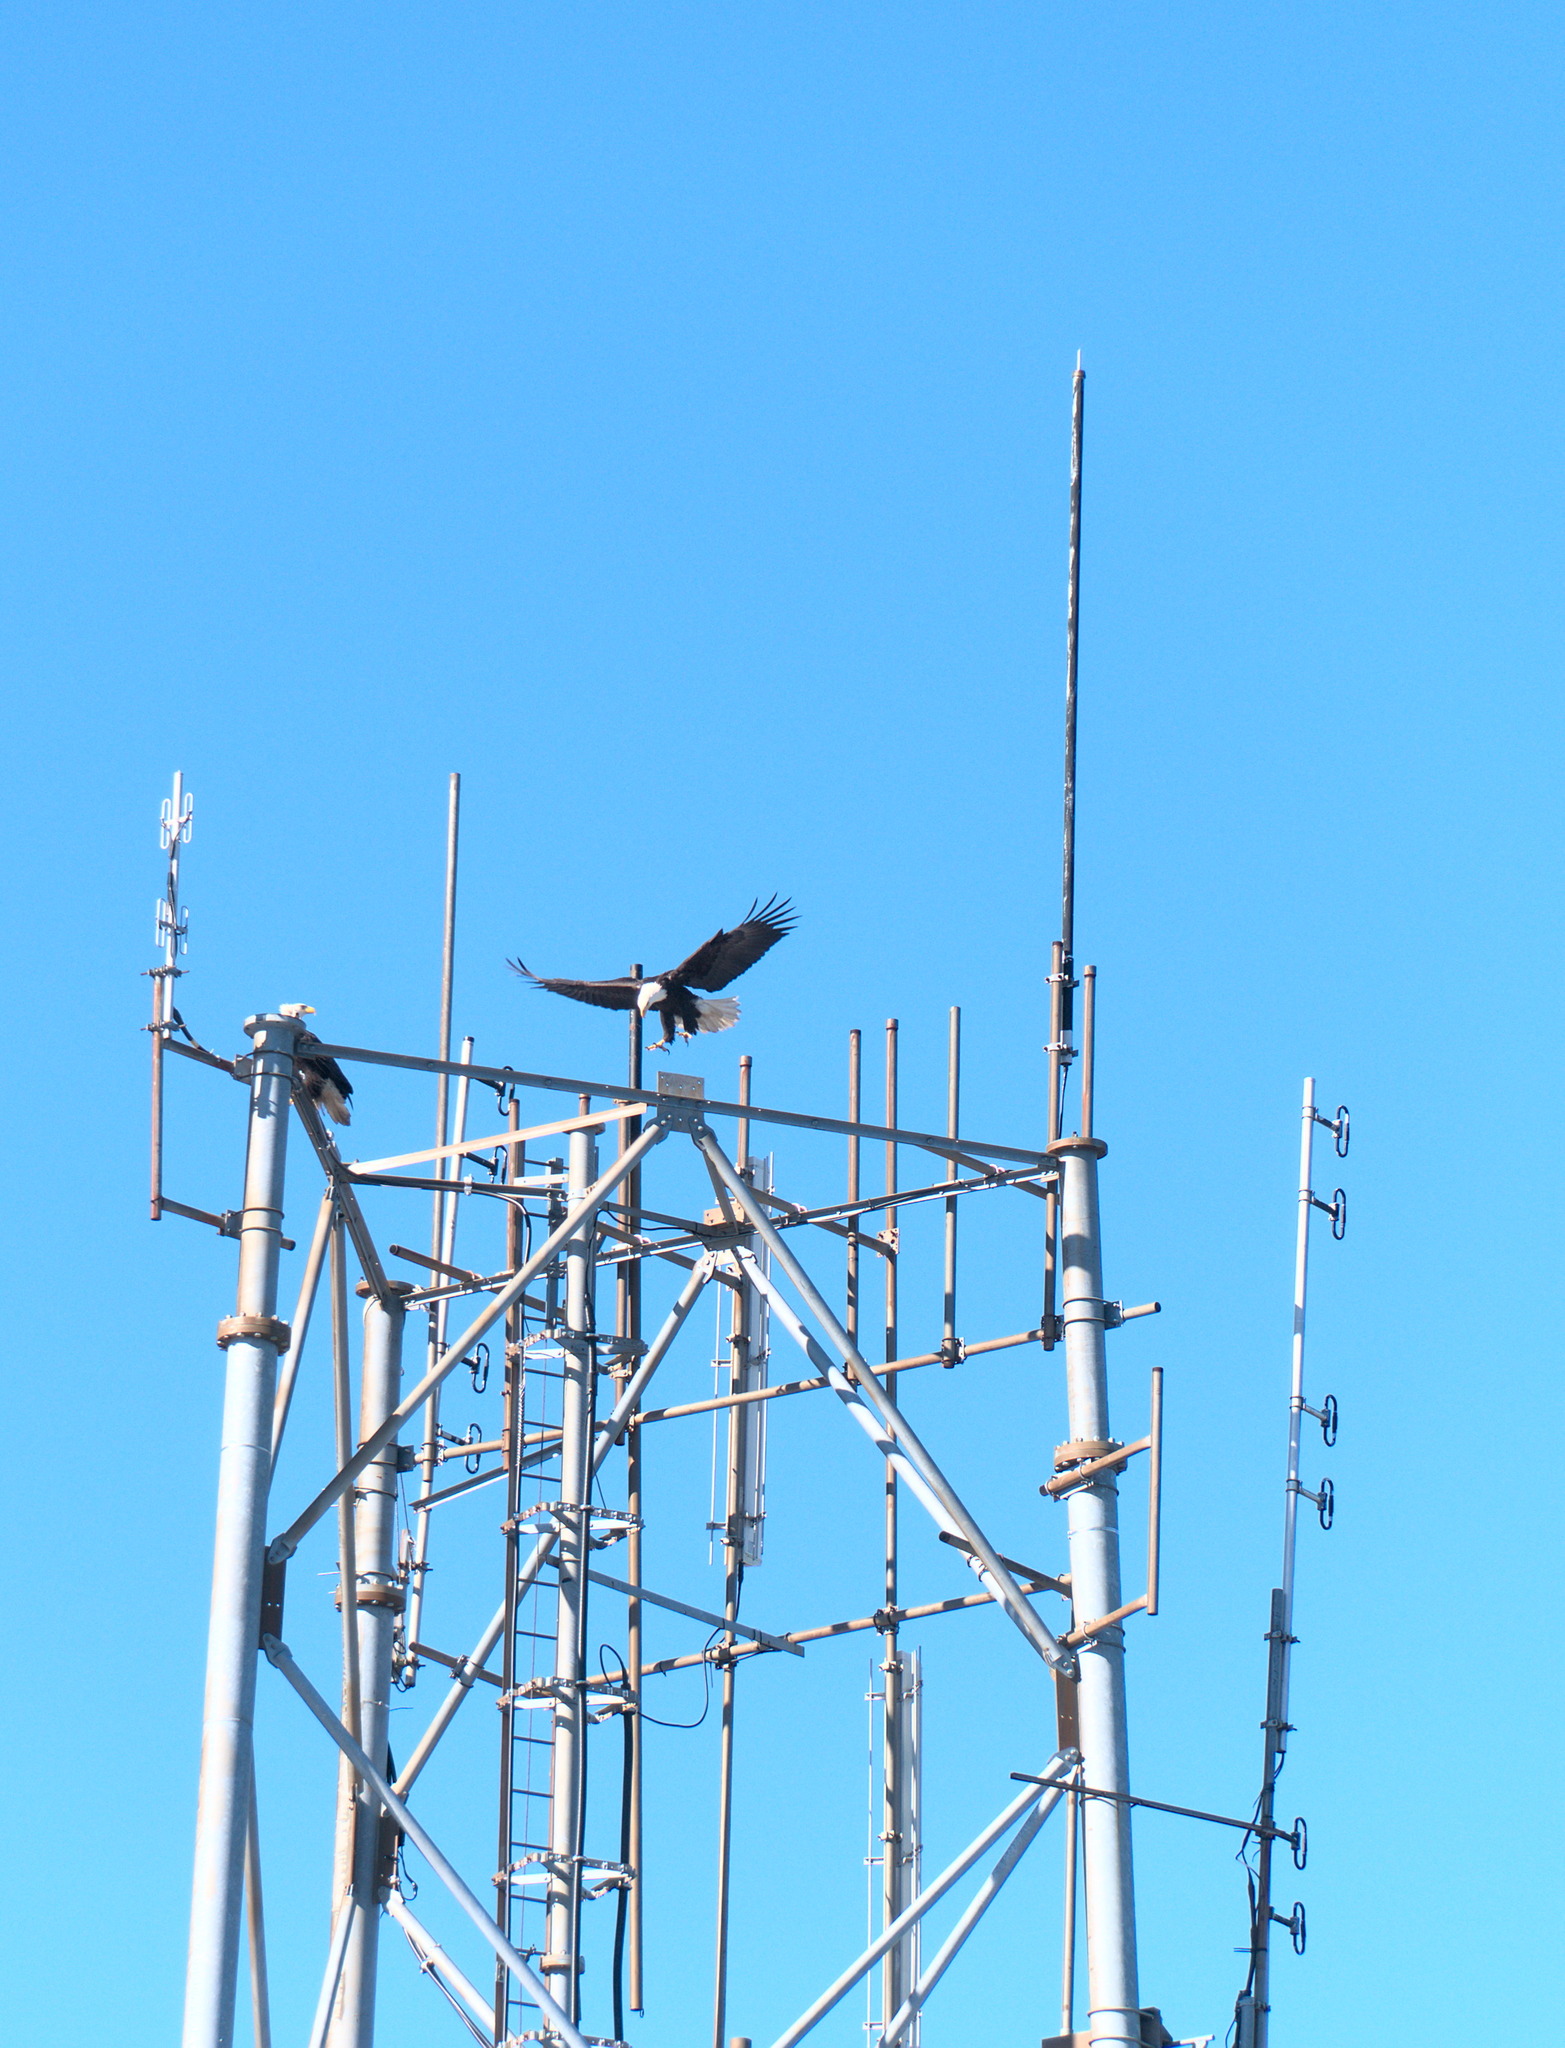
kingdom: Animalia
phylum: Chordata
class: Aves
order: Accipitriformes
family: Accipitridae
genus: Haliaeetus
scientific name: Haliaeetus leucocephalus
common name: Bald eagle
